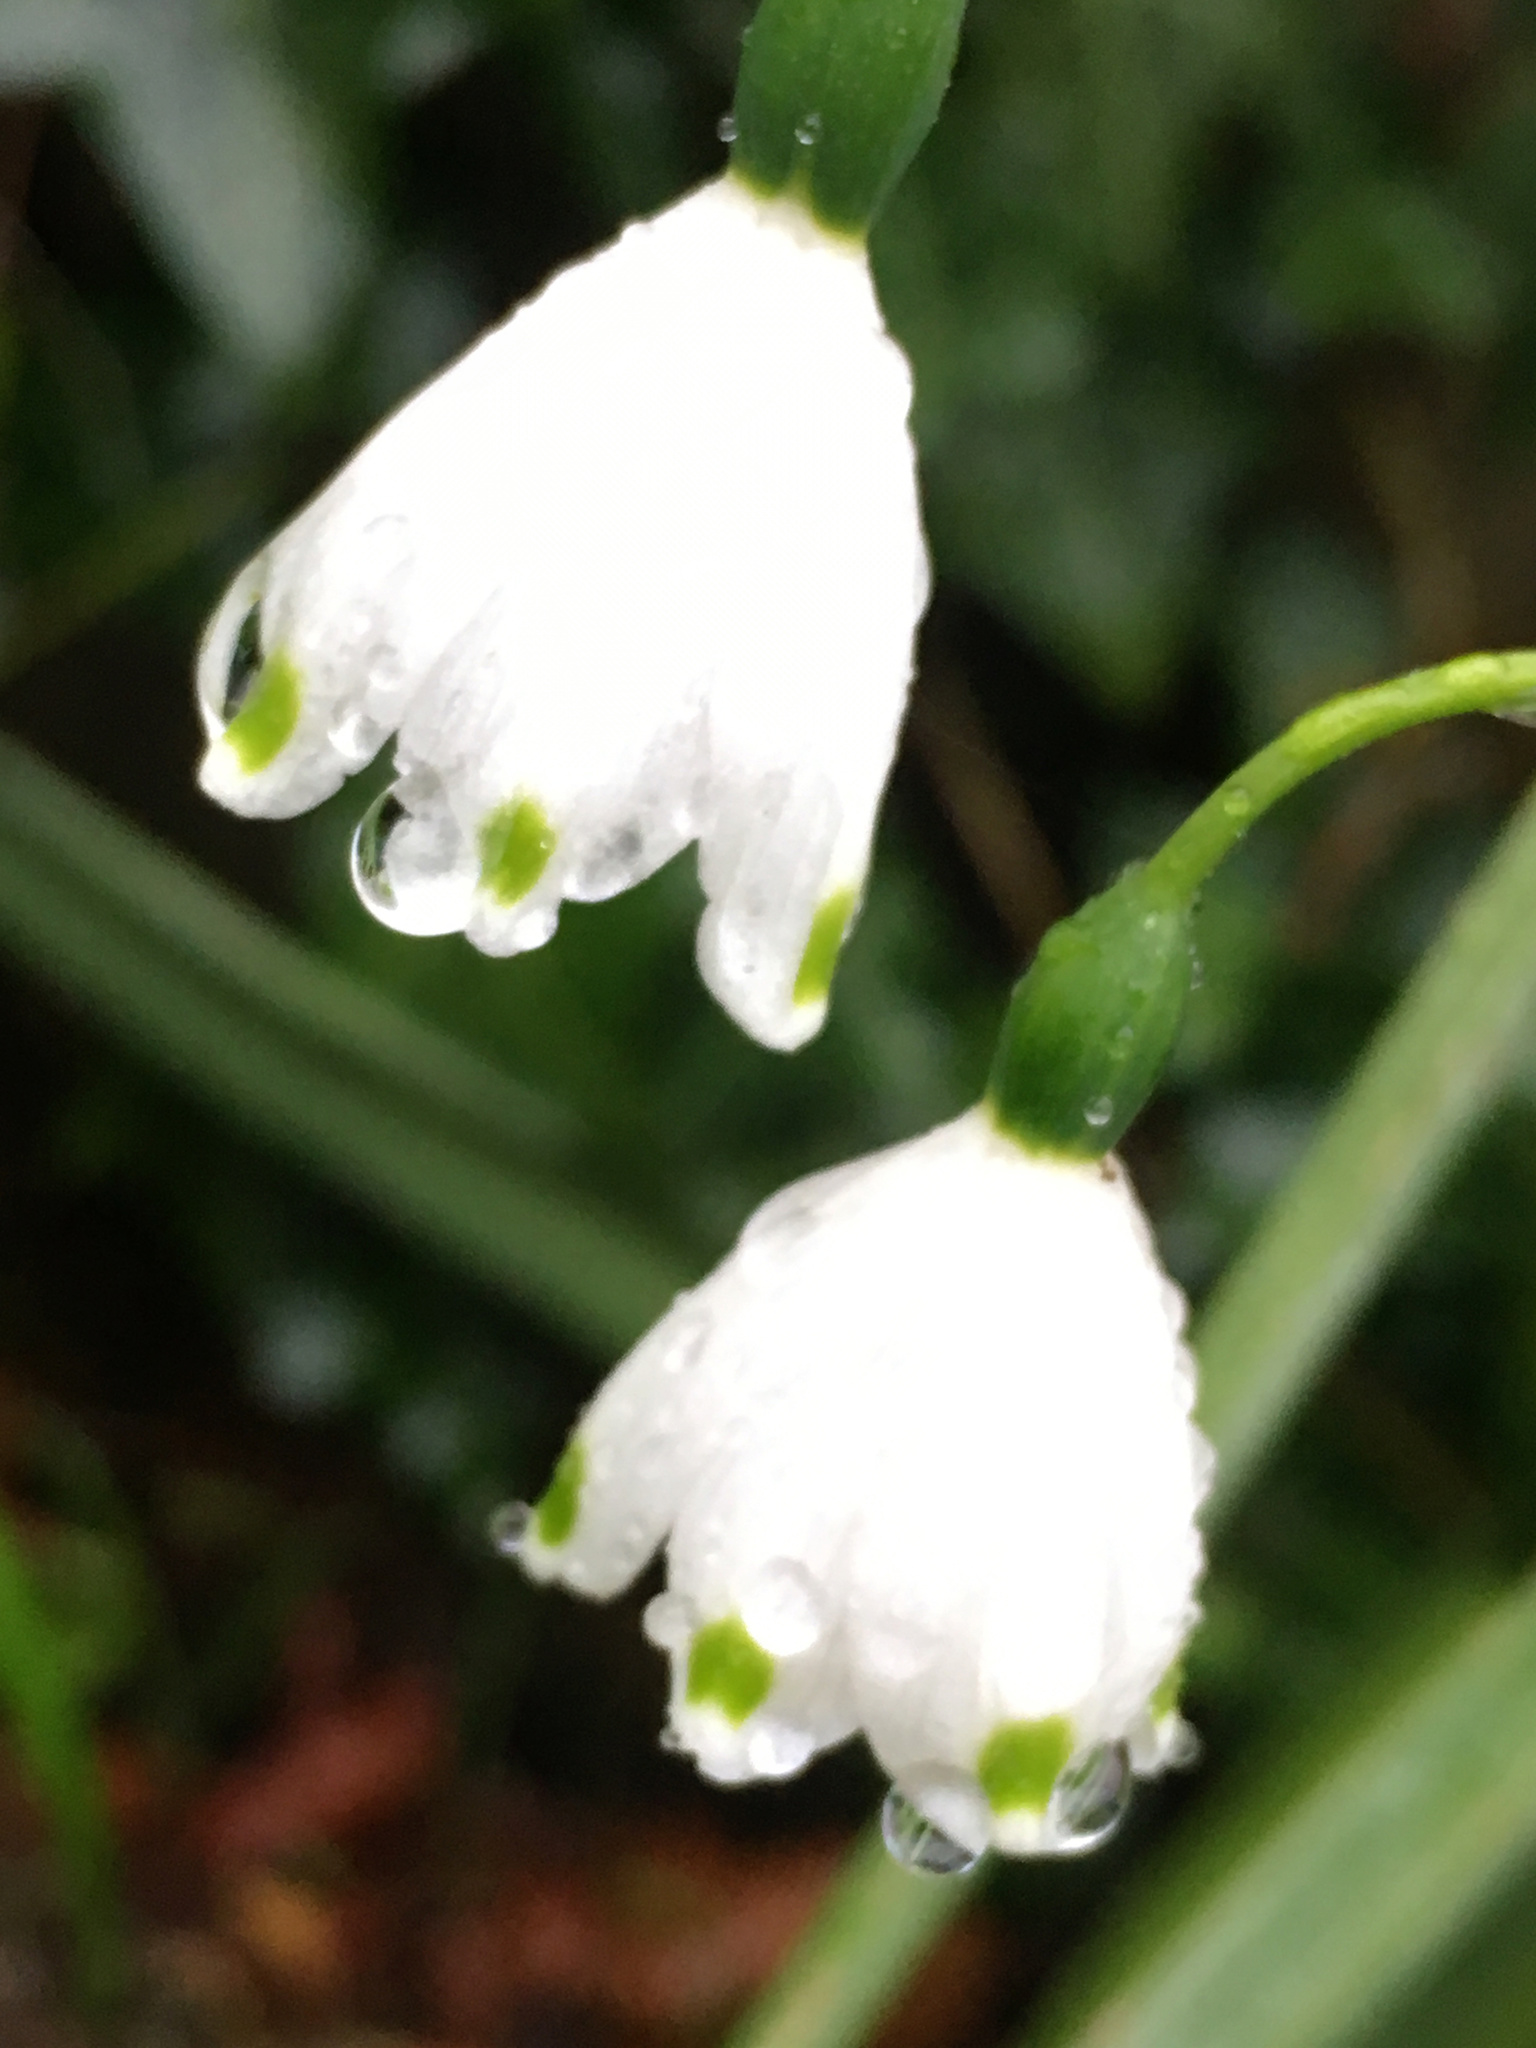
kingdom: Plantae
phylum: Tracheophyta
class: Liliopsida
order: Asparagales
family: Amaryllidaceae
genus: Leucojum
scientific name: Leucojum aestivum
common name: Summer snowflake
